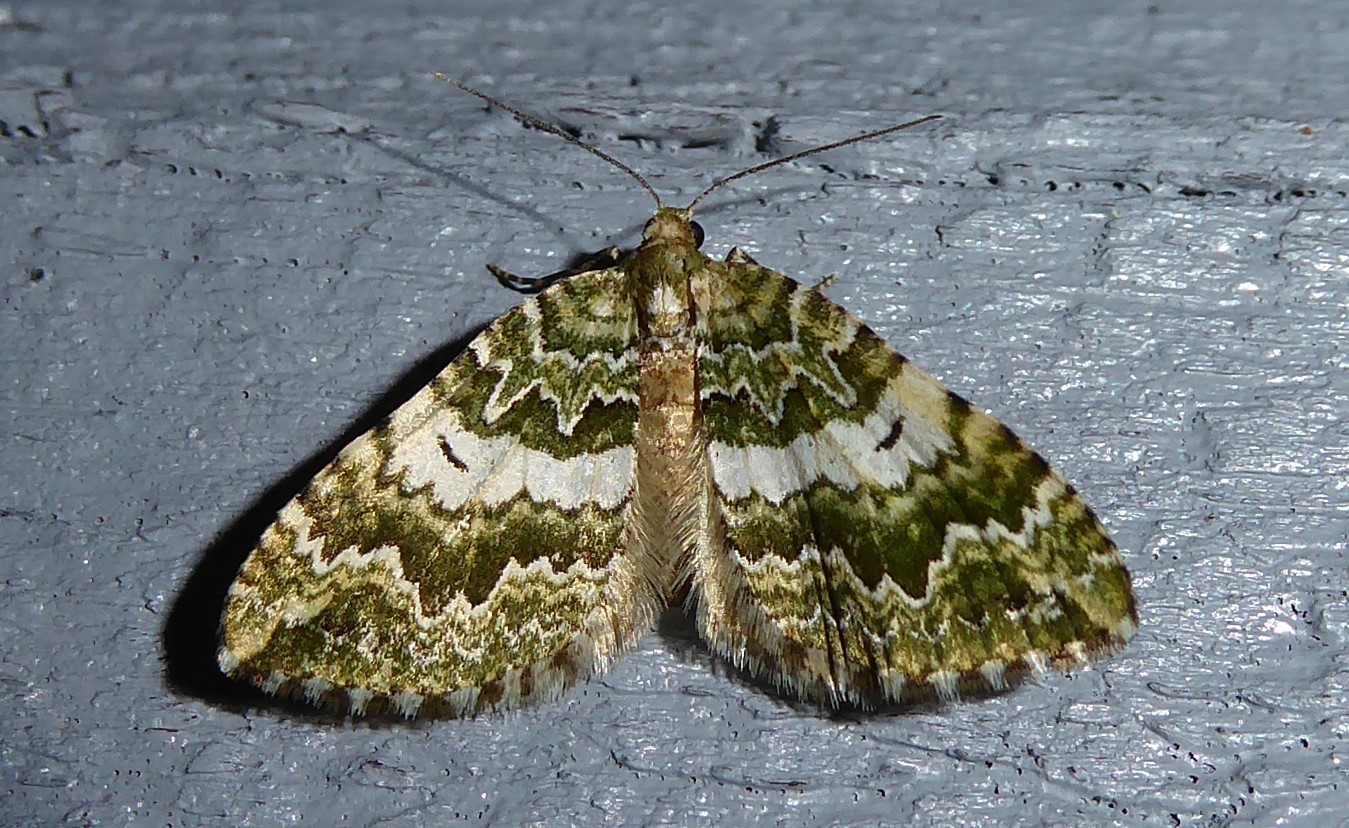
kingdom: Animalia
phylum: Arthropoda
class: Insecta
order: Lepidoptera
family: Geometridae
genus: Asaphodes
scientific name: Asaphodes beata
